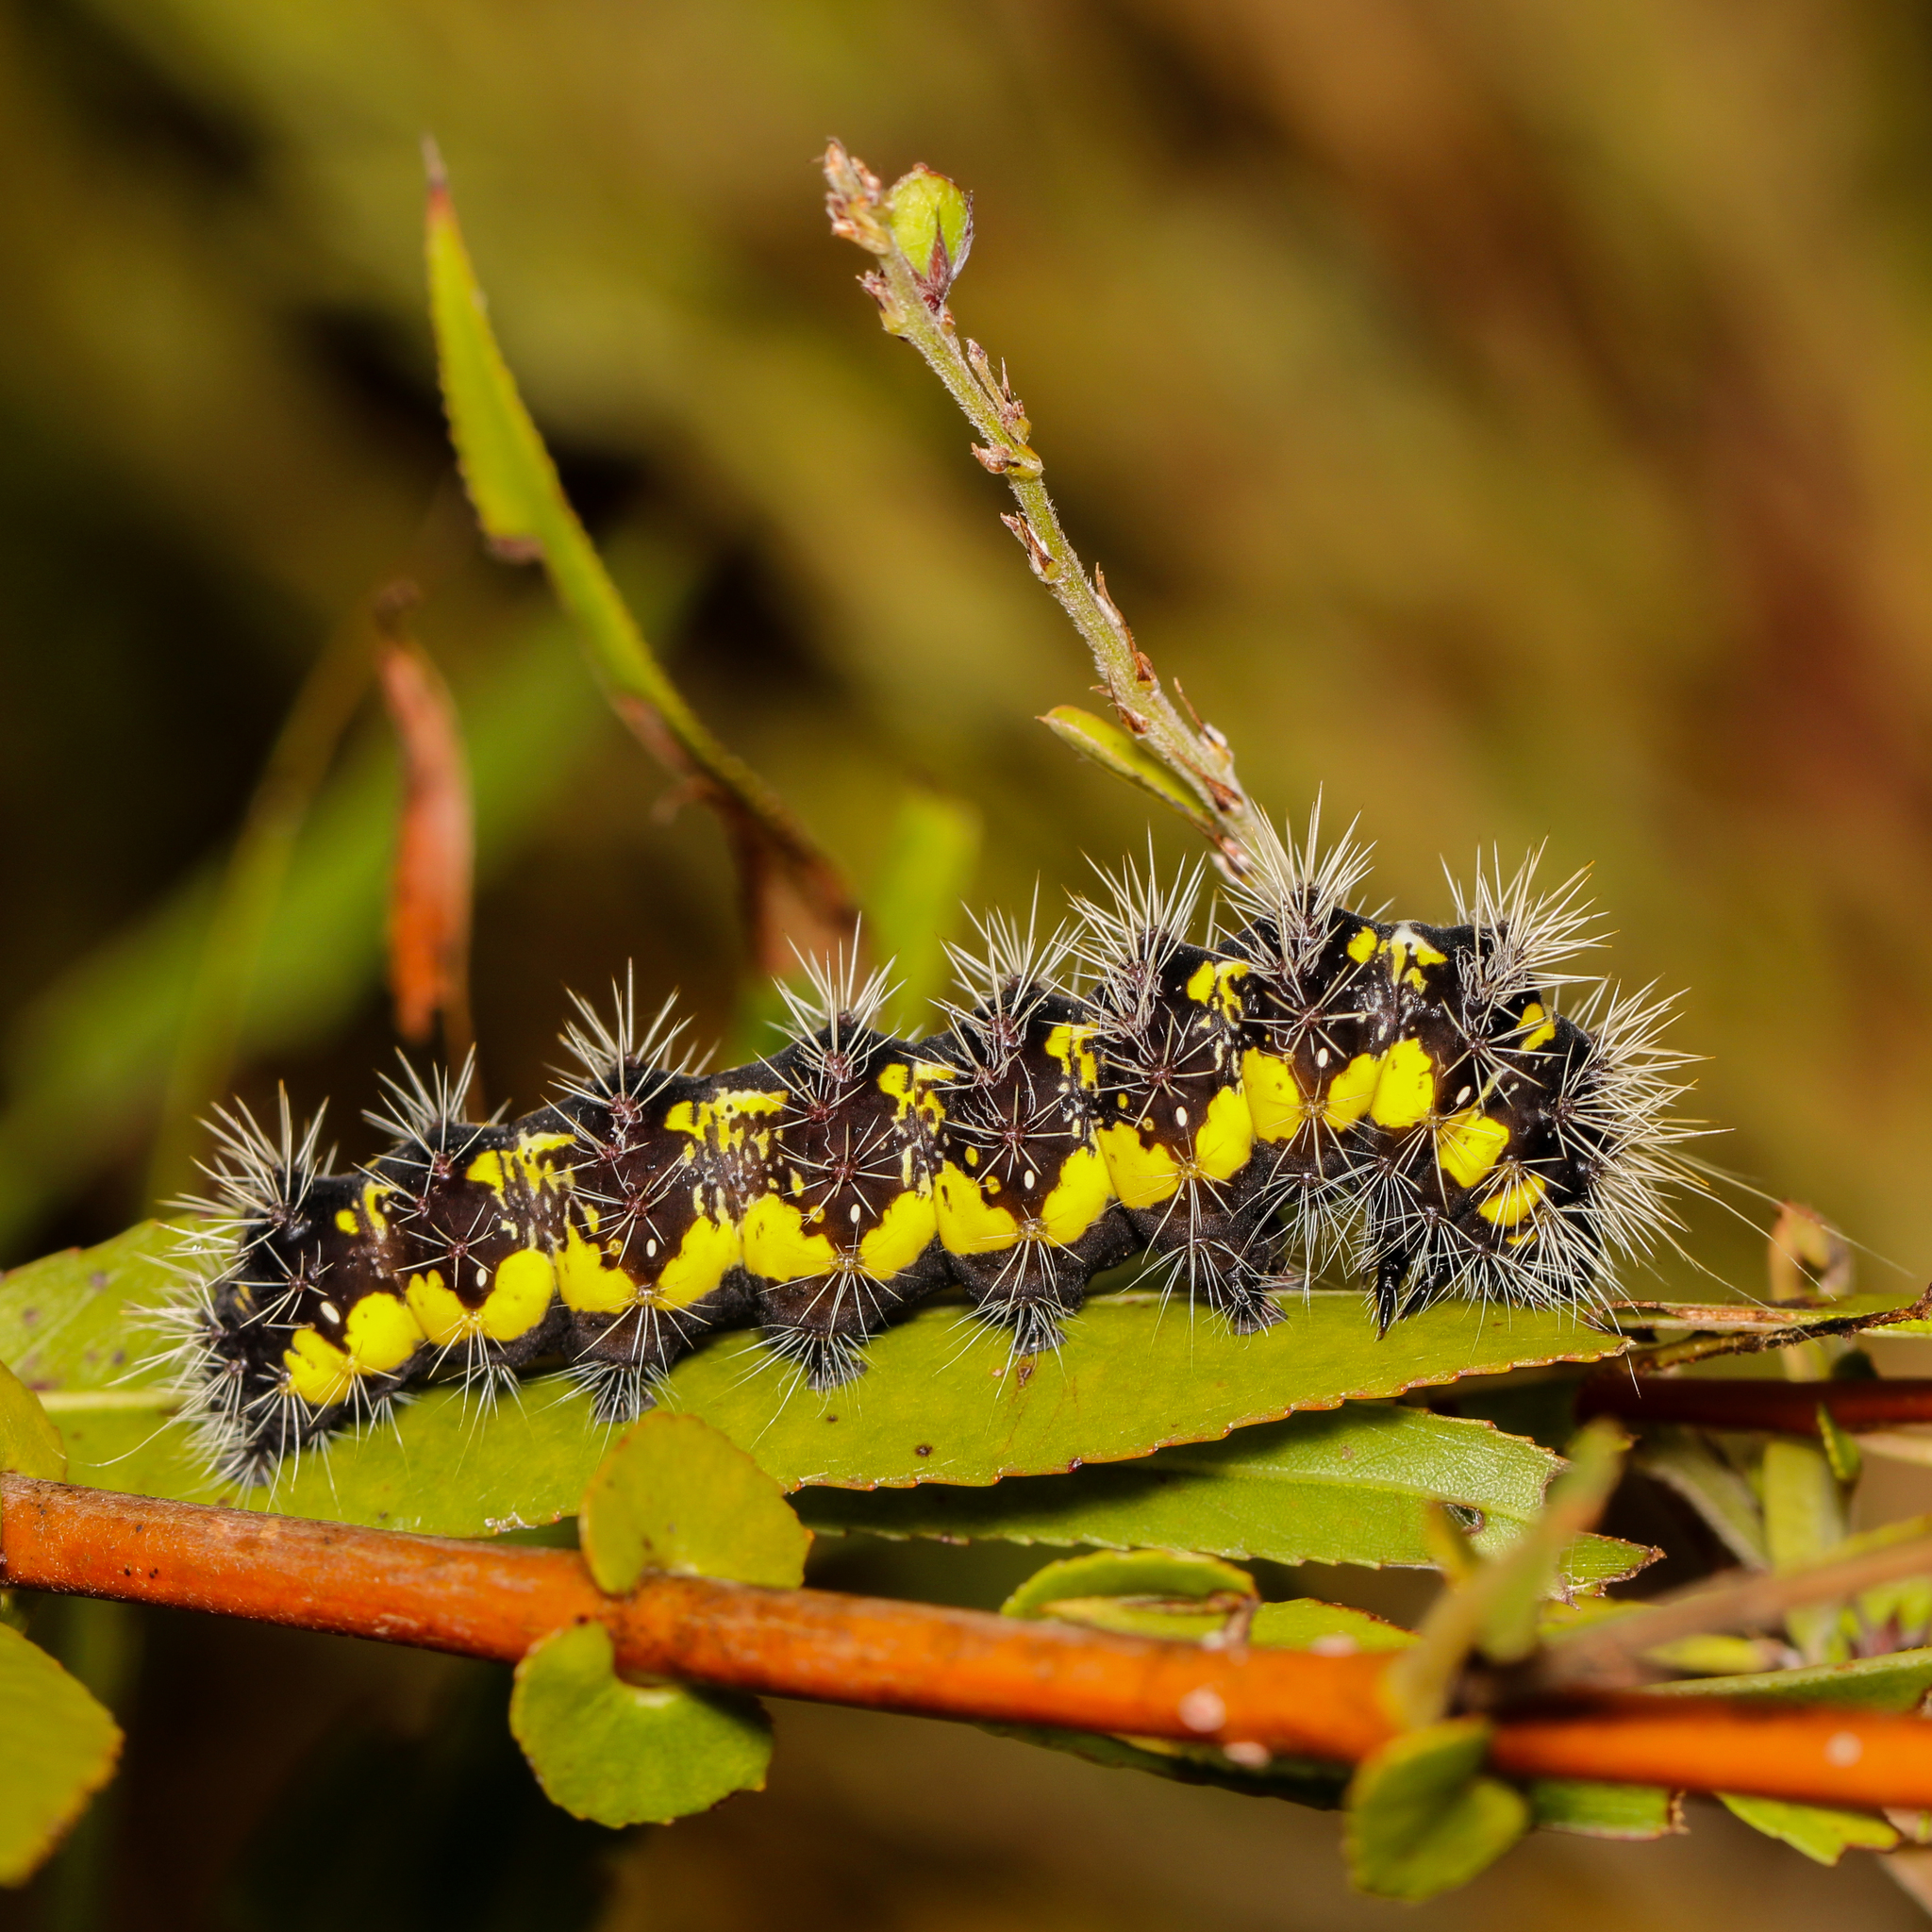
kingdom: Animalia
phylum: Arthropoda
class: Insecta
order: Lepidoptera
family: Noctuidae
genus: Acronicta
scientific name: Acronicta oblinita
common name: Smeared dagger
